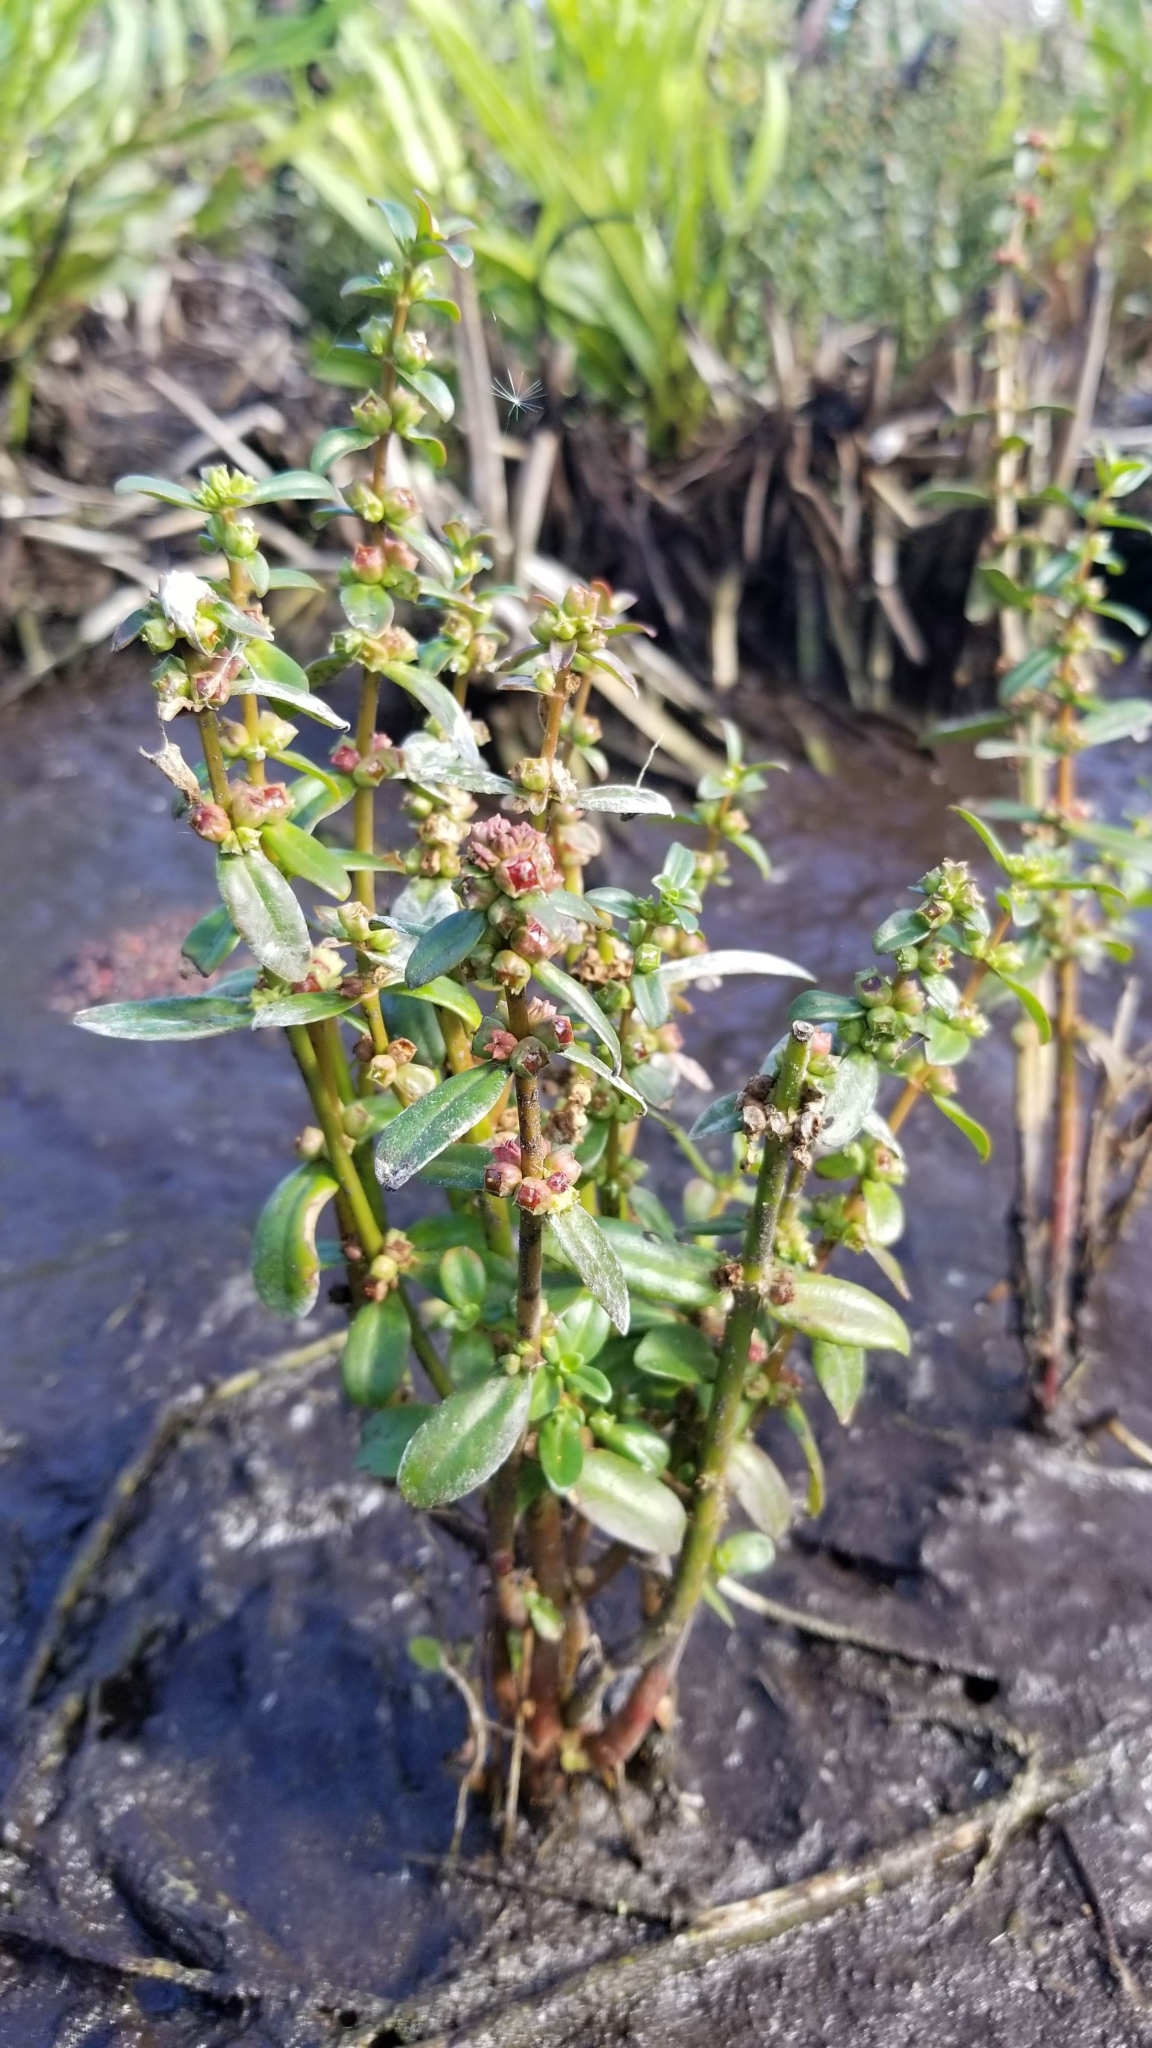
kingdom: Plantae
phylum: Tracheophyta
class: Magnoliopsida
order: Myrtales
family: Lythraceae
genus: Ammannia
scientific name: Ammannia latifolia
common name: Toothcup
